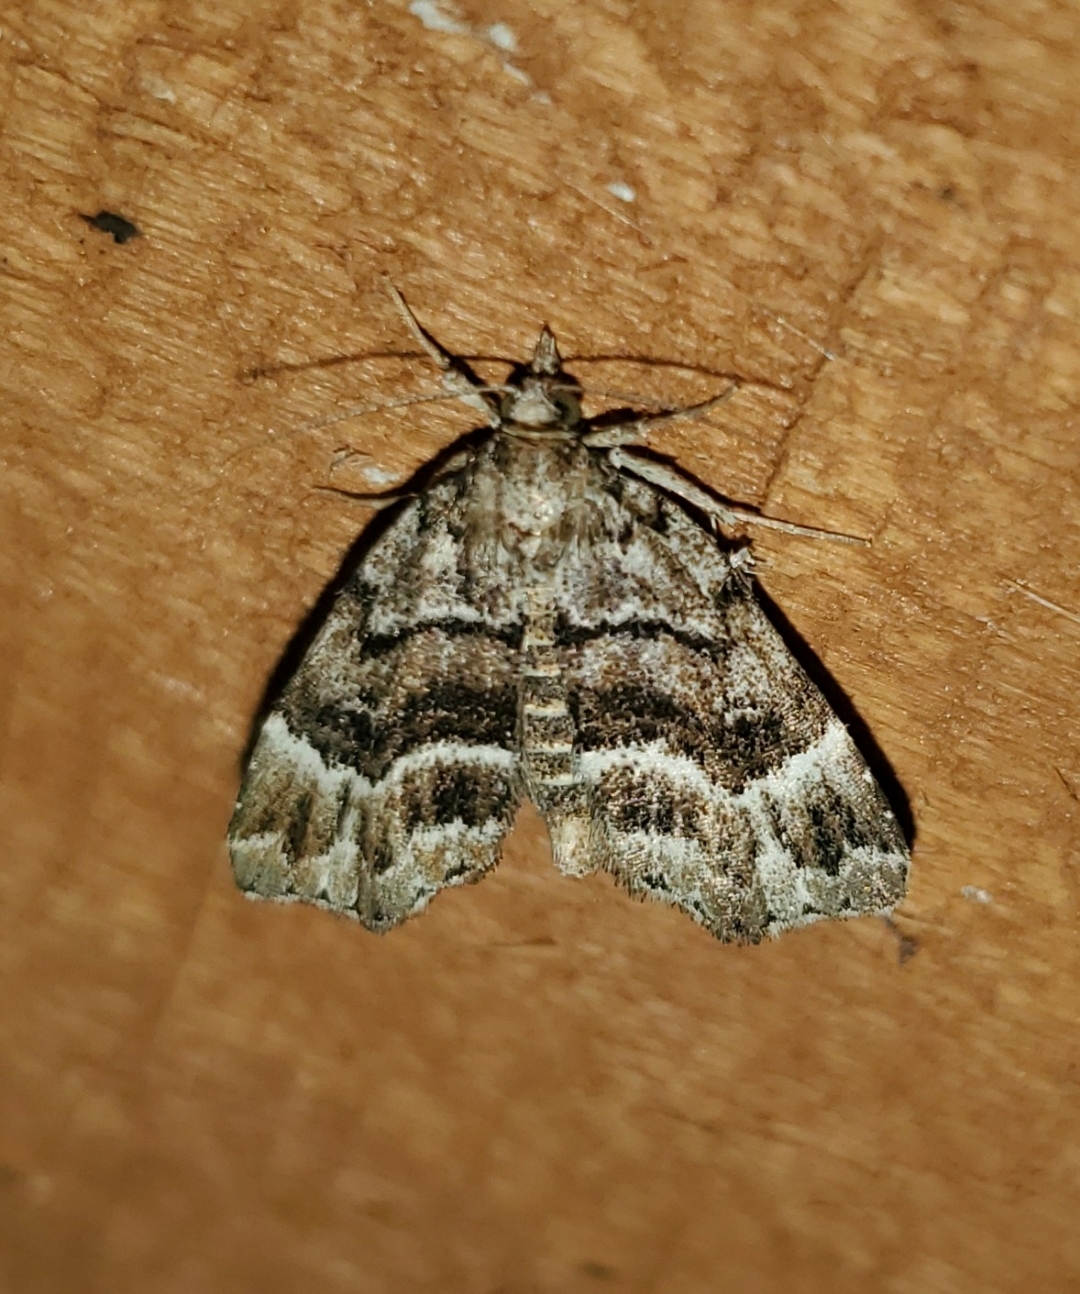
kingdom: Animalia
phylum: Arthropoda
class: Insecta
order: Lepidoptera
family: Erebidae
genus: Cutina
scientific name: Cutina arcuata
